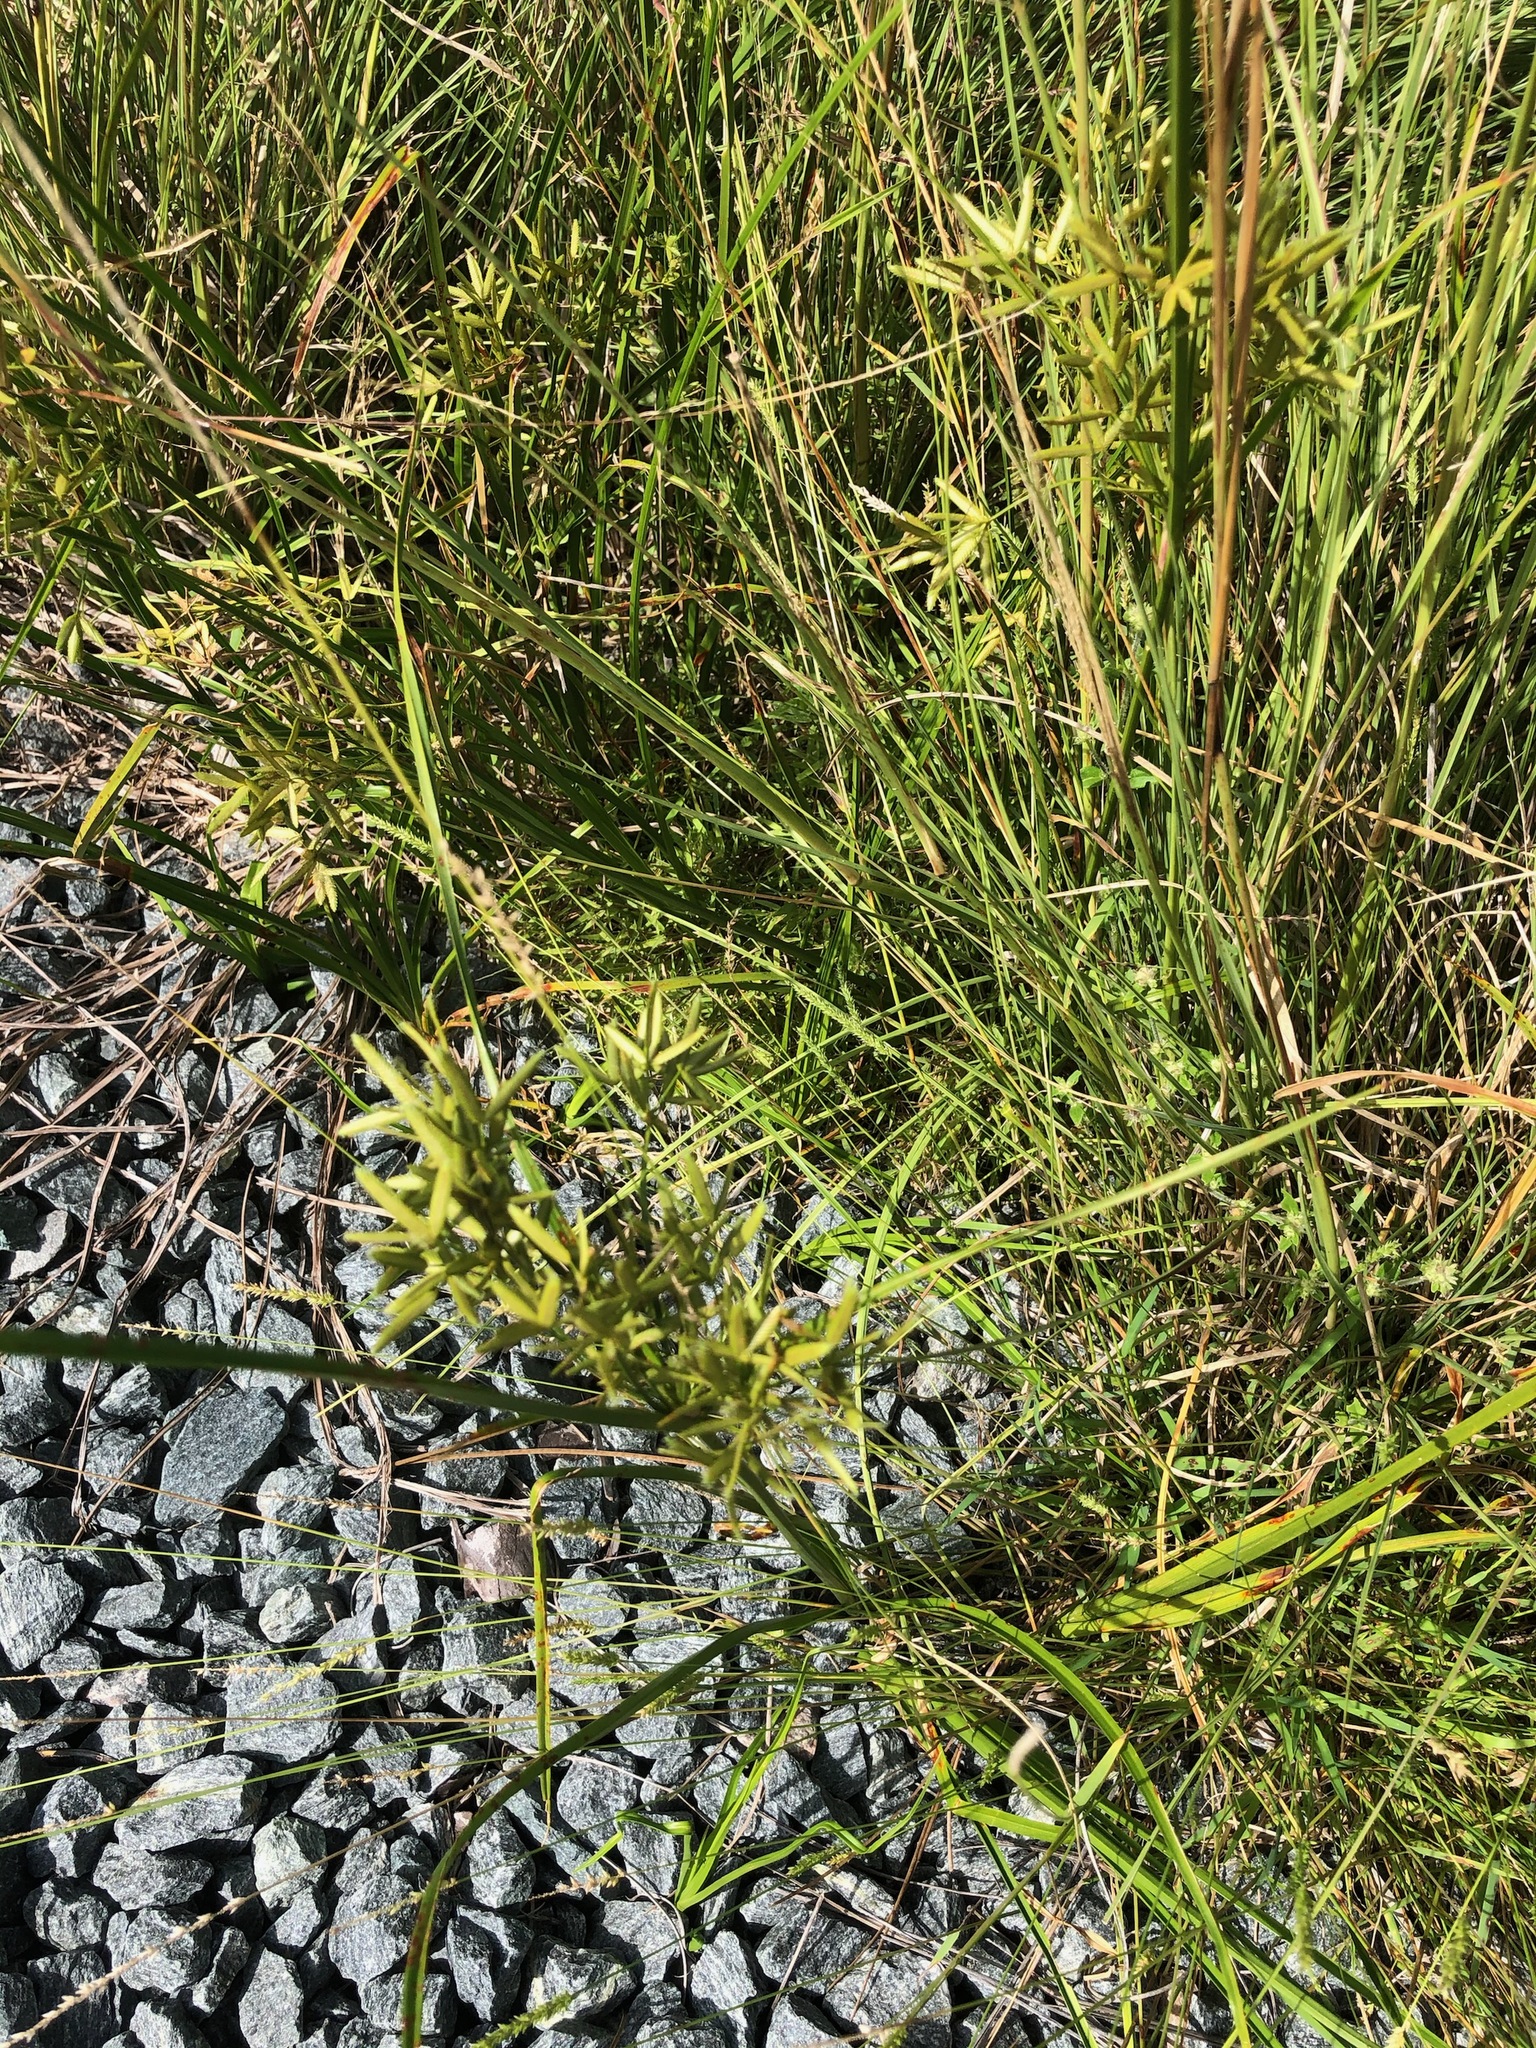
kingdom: Plantae
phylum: Tracheophyta
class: Liliopsida
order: Poales
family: Cyperaceae
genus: Cyperus
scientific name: Cyperus lecontei
